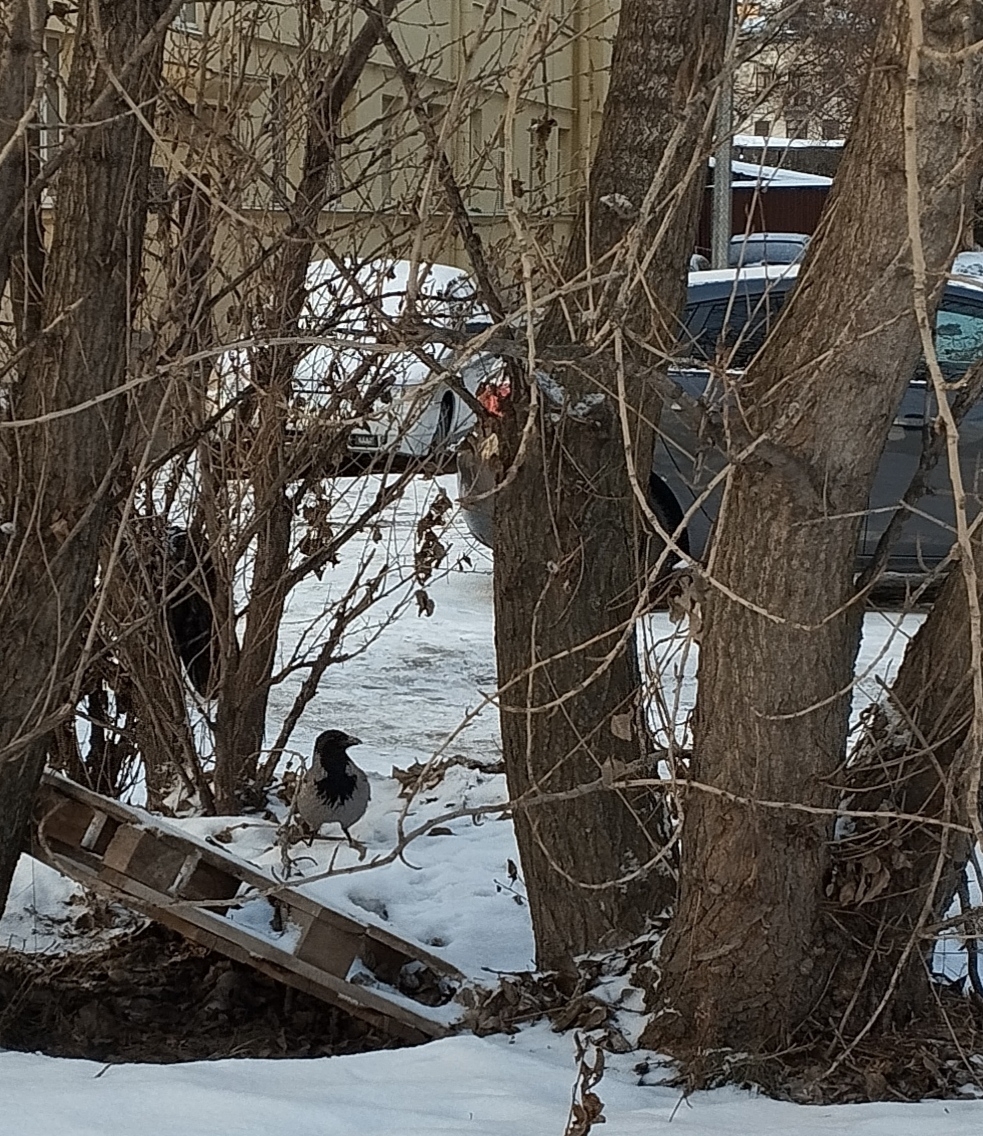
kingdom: Animalia
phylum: Chordata
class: Aves
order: Passeriformes
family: Corvidae
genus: Corvus
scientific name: Corvus cornix
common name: Hooded crow
